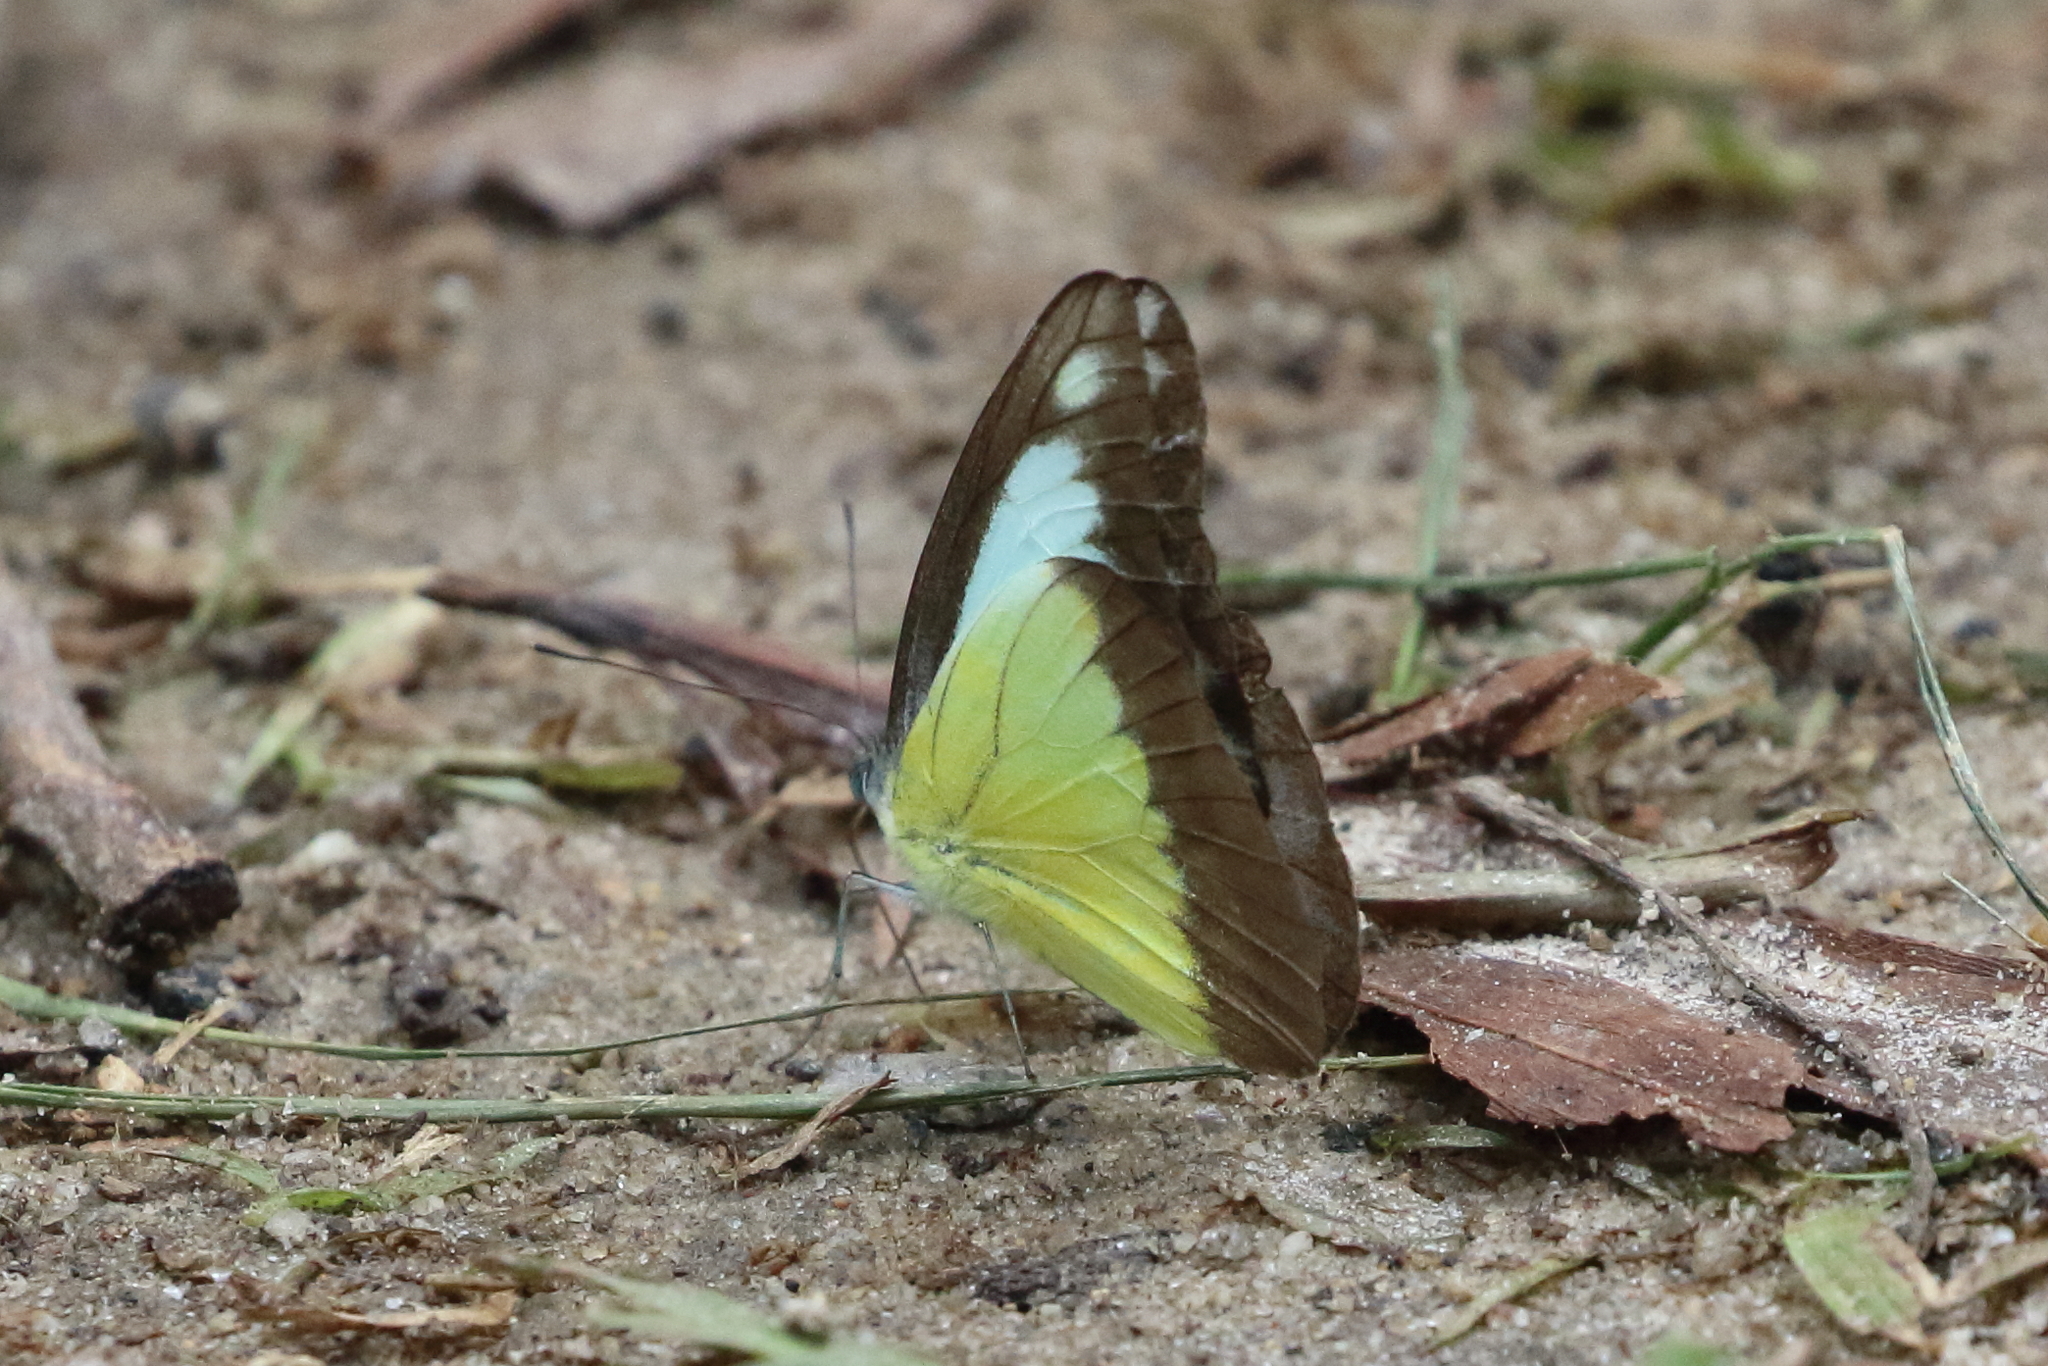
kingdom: Animalia
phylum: Arthropoda
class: Insecta
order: Lepidoptera
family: Pieridae
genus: Appias
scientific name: Appias lyncida
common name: Chocolate albatross
